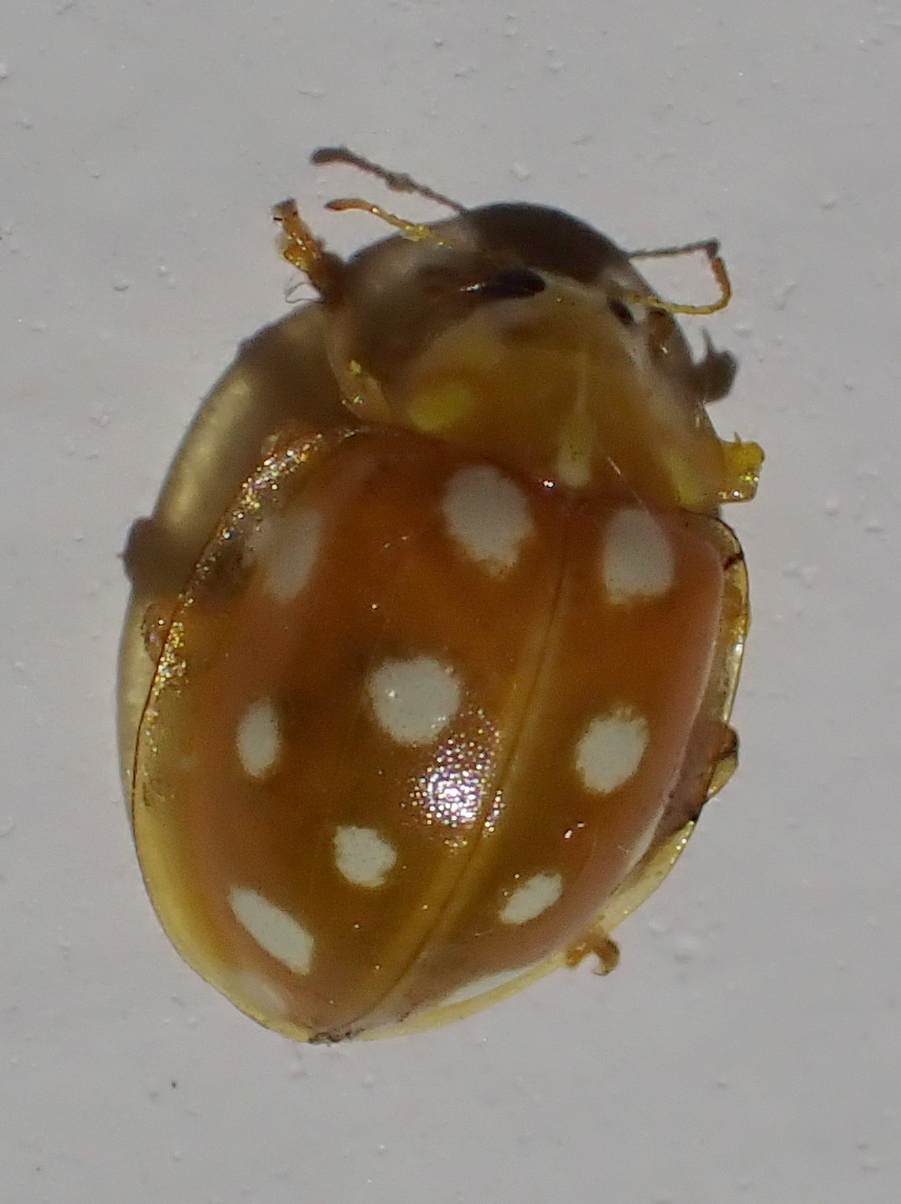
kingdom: Animalia
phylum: Arthropoda
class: Insecta
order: Coleoptera
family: Coccinellidae
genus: Halyzia
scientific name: Halyzia sedecimguttata
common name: Orange ladybird
